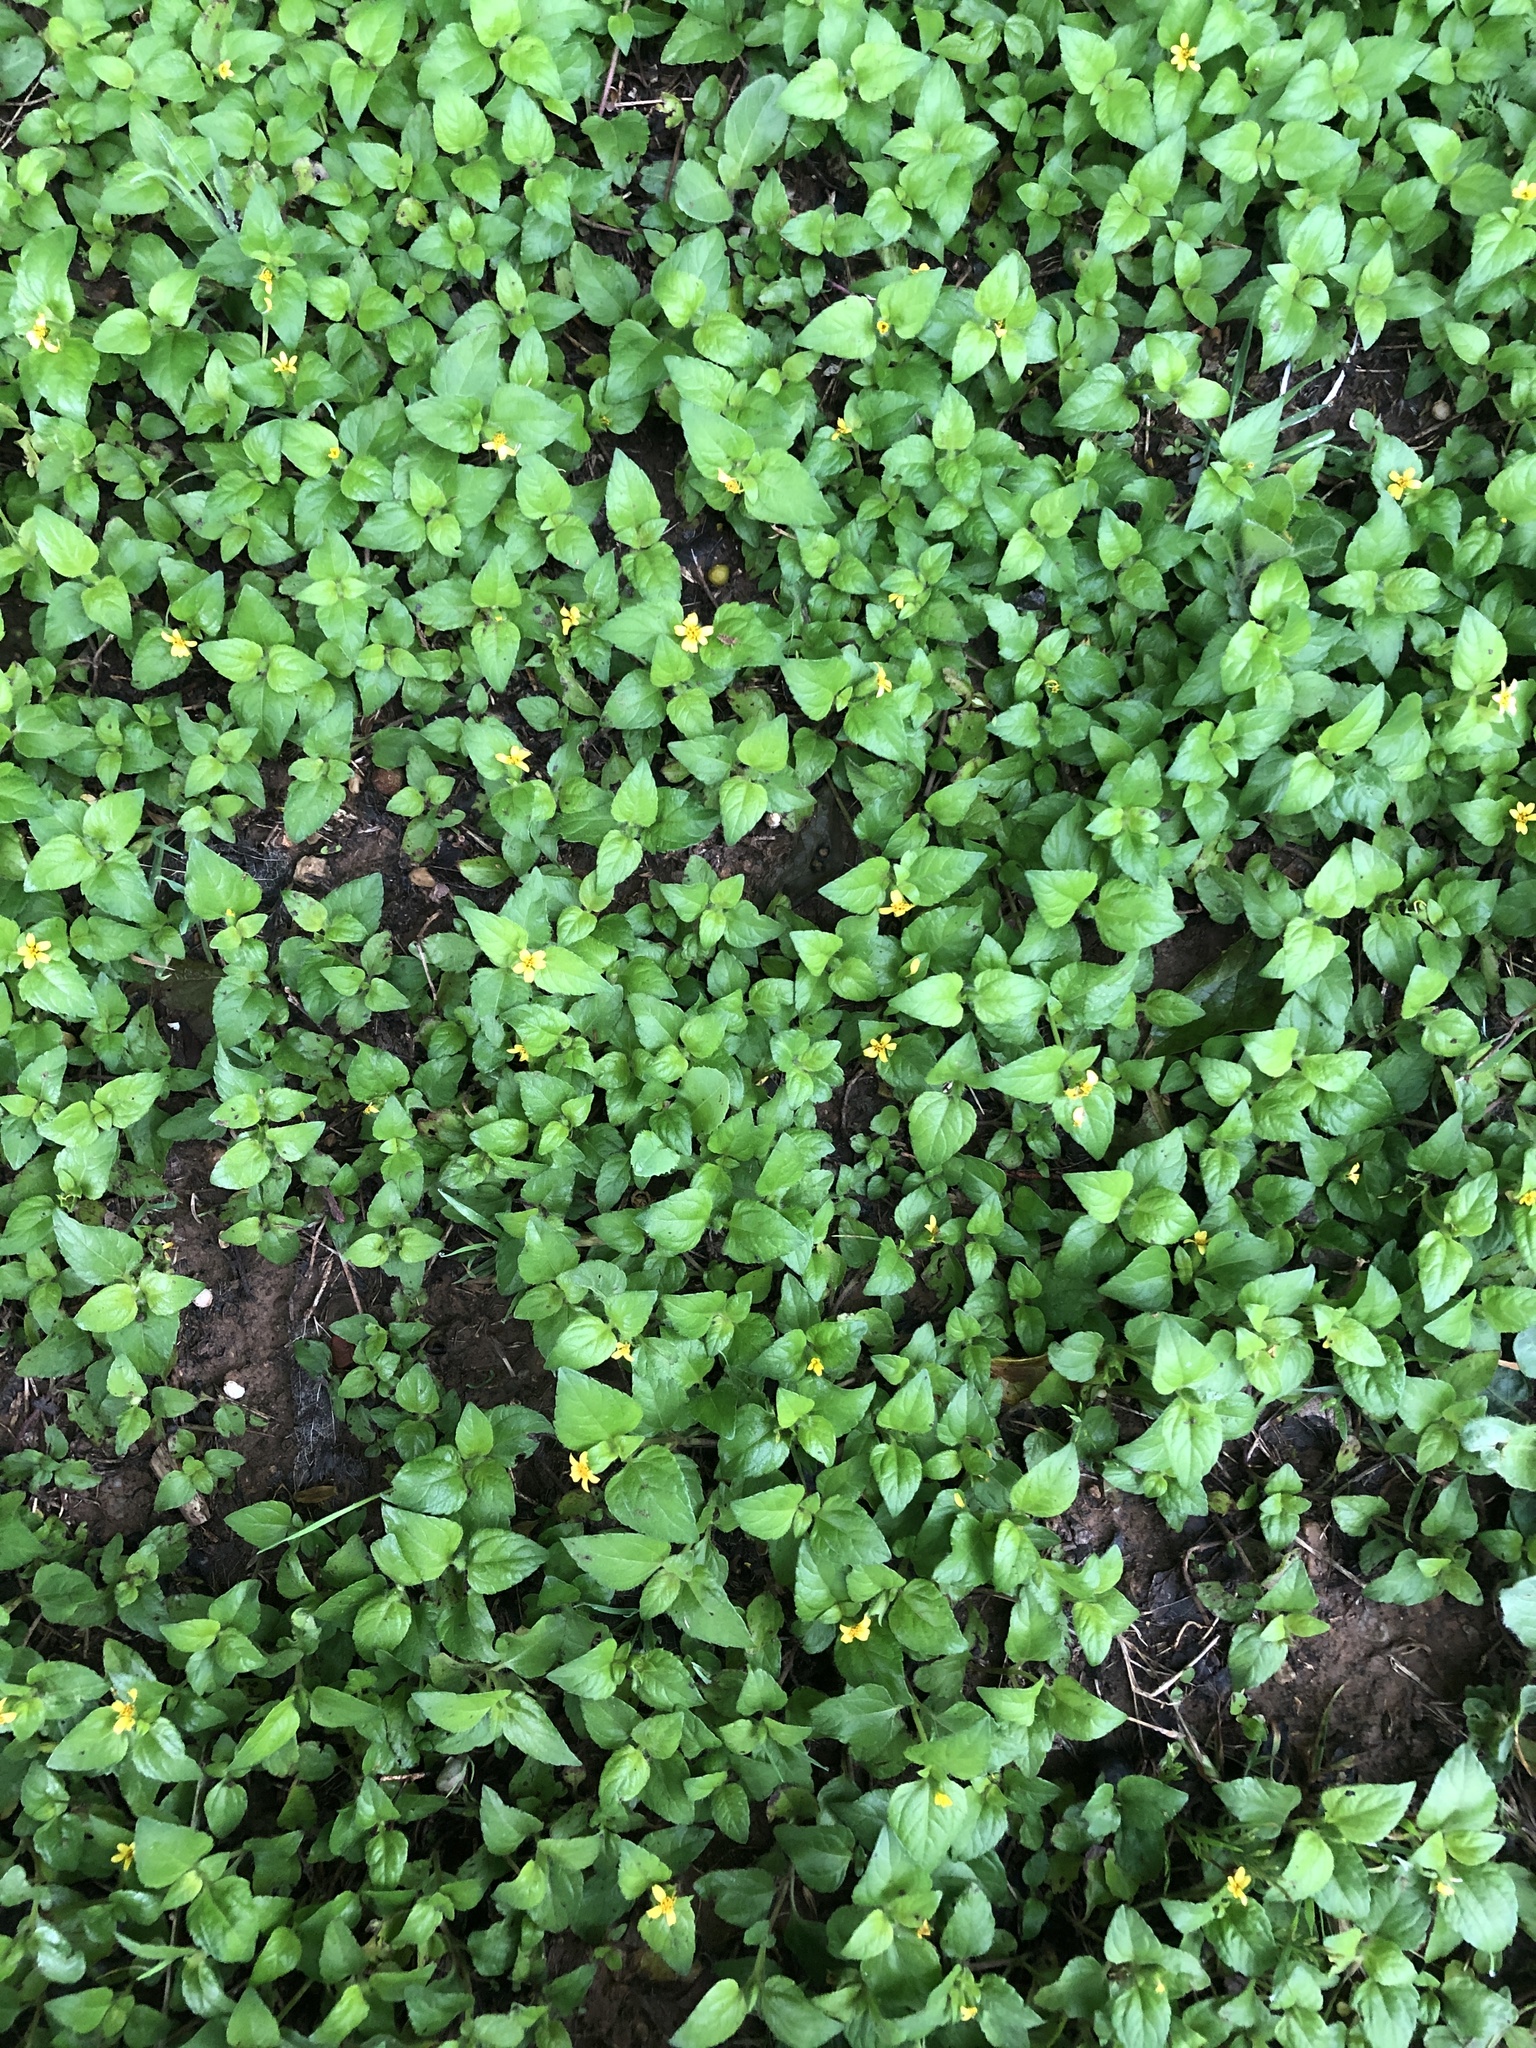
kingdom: Plantae
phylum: Tracheophyta
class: Magnoliopsida
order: Asterales
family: Asteraceae
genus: Calyptocarpus
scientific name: Calyptocarpus vialis
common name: Straggler daisy
